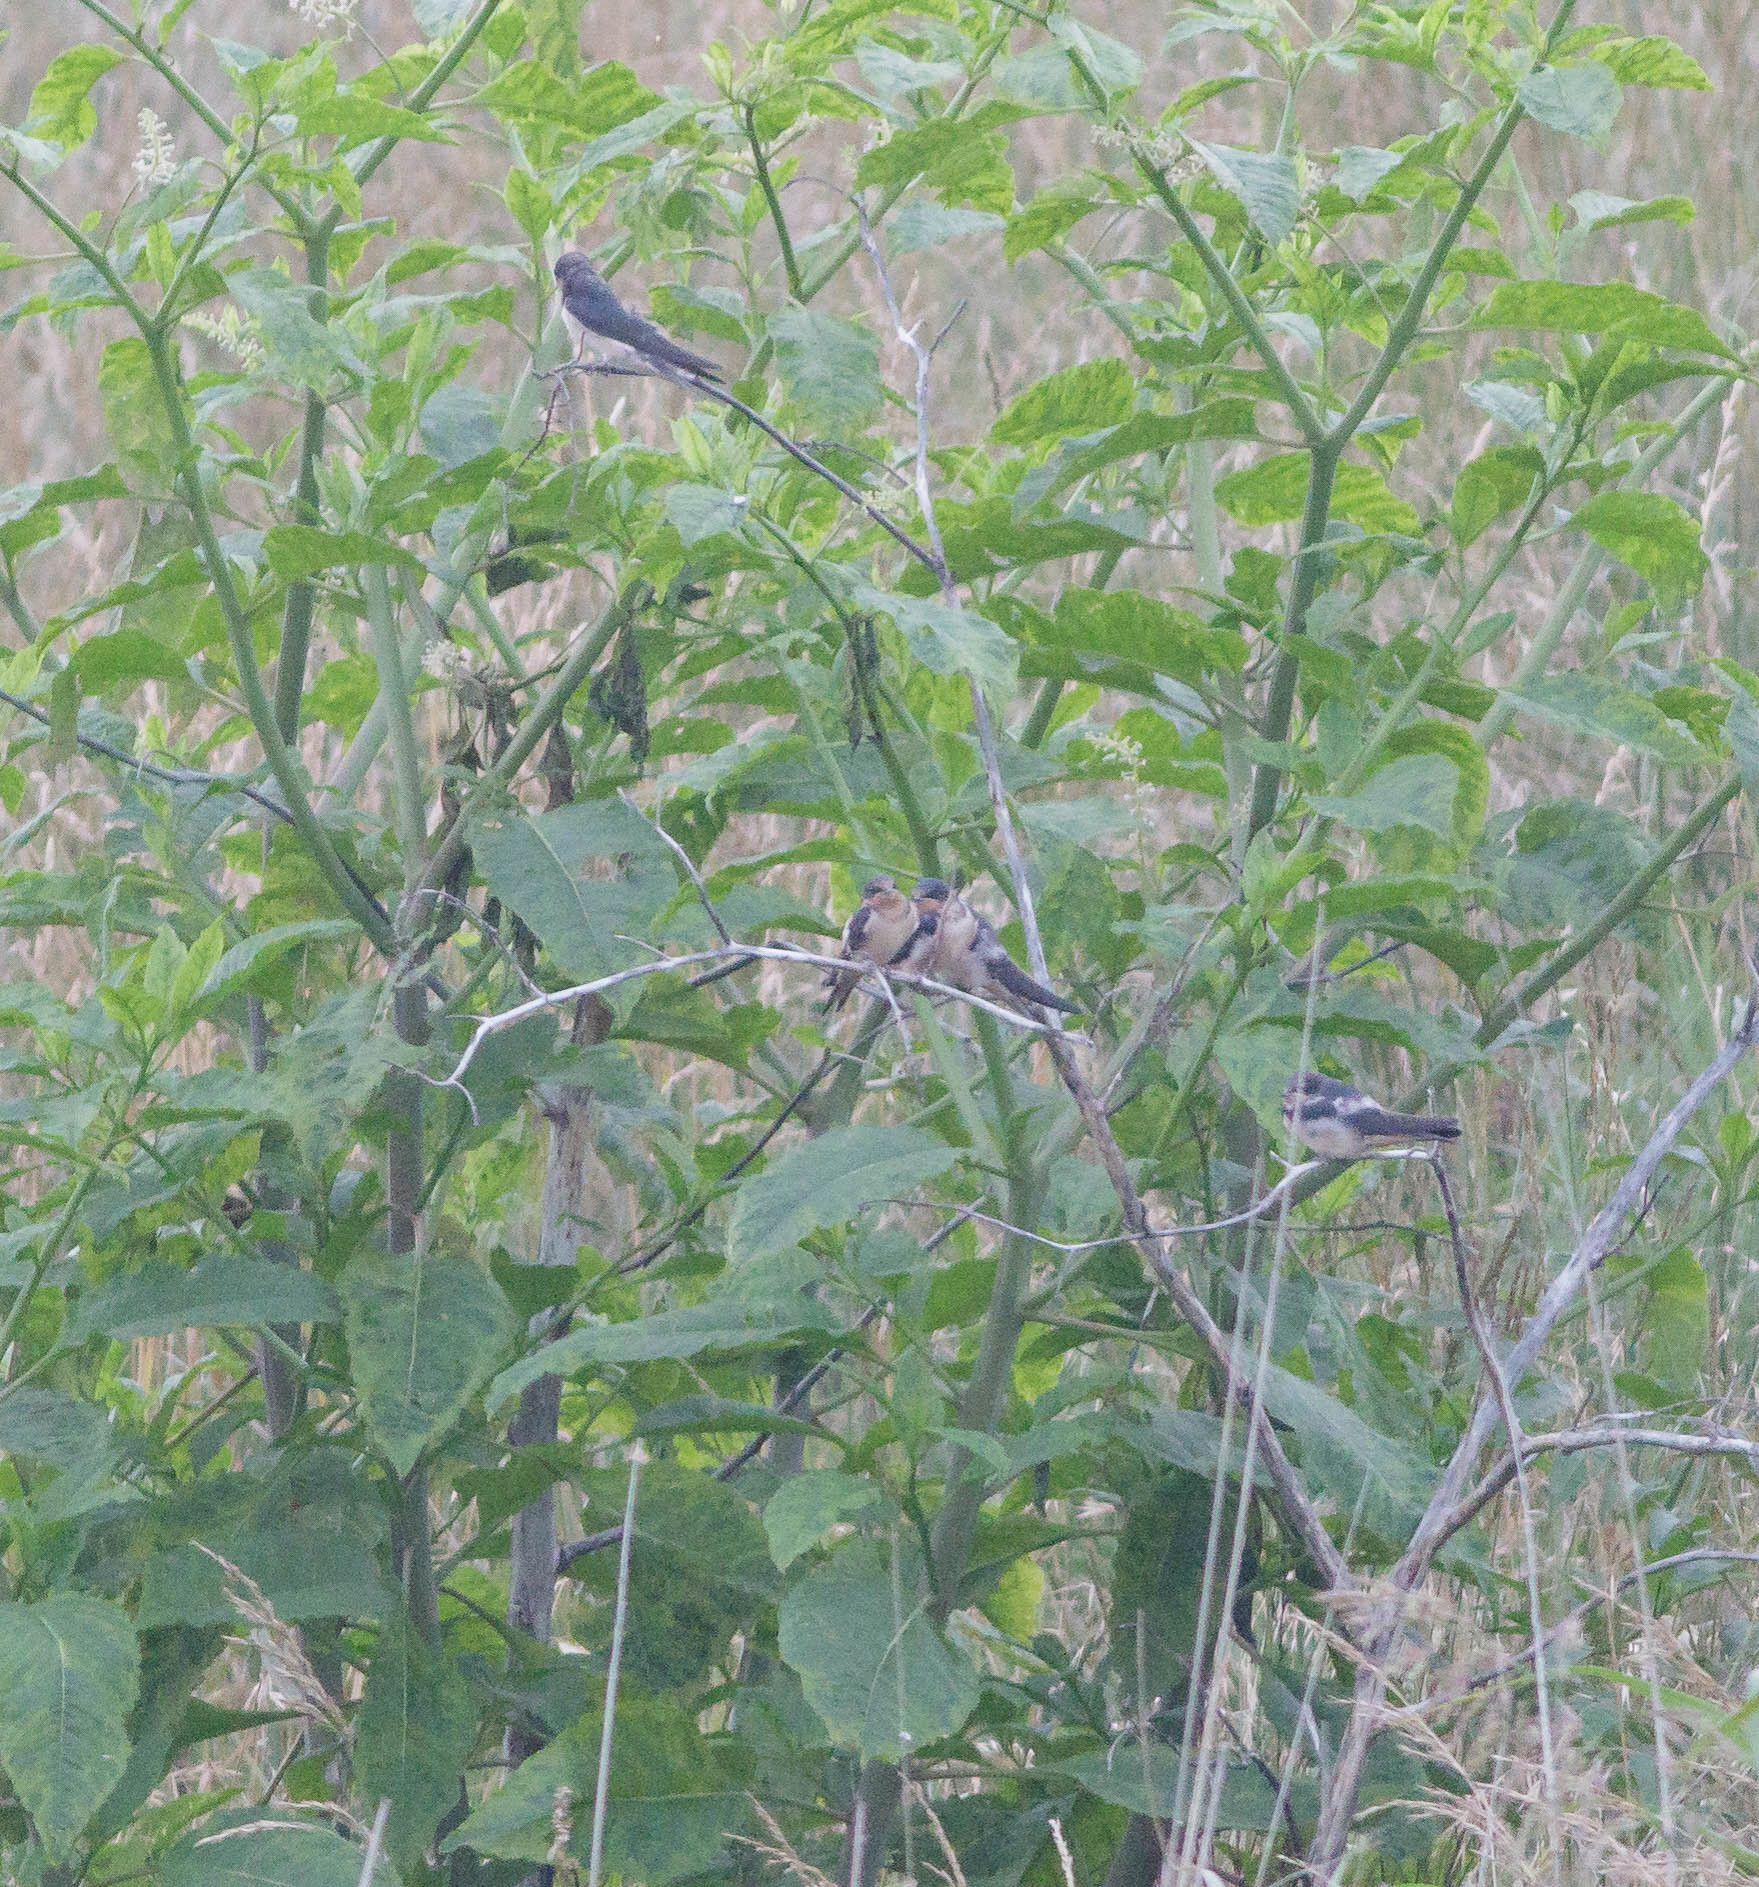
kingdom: Animalia
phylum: Chordata
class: Aves
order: Passeriformes
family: Hirundinidae
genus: Hirundo
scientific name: Hirundo rustica
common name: Barn swallow
